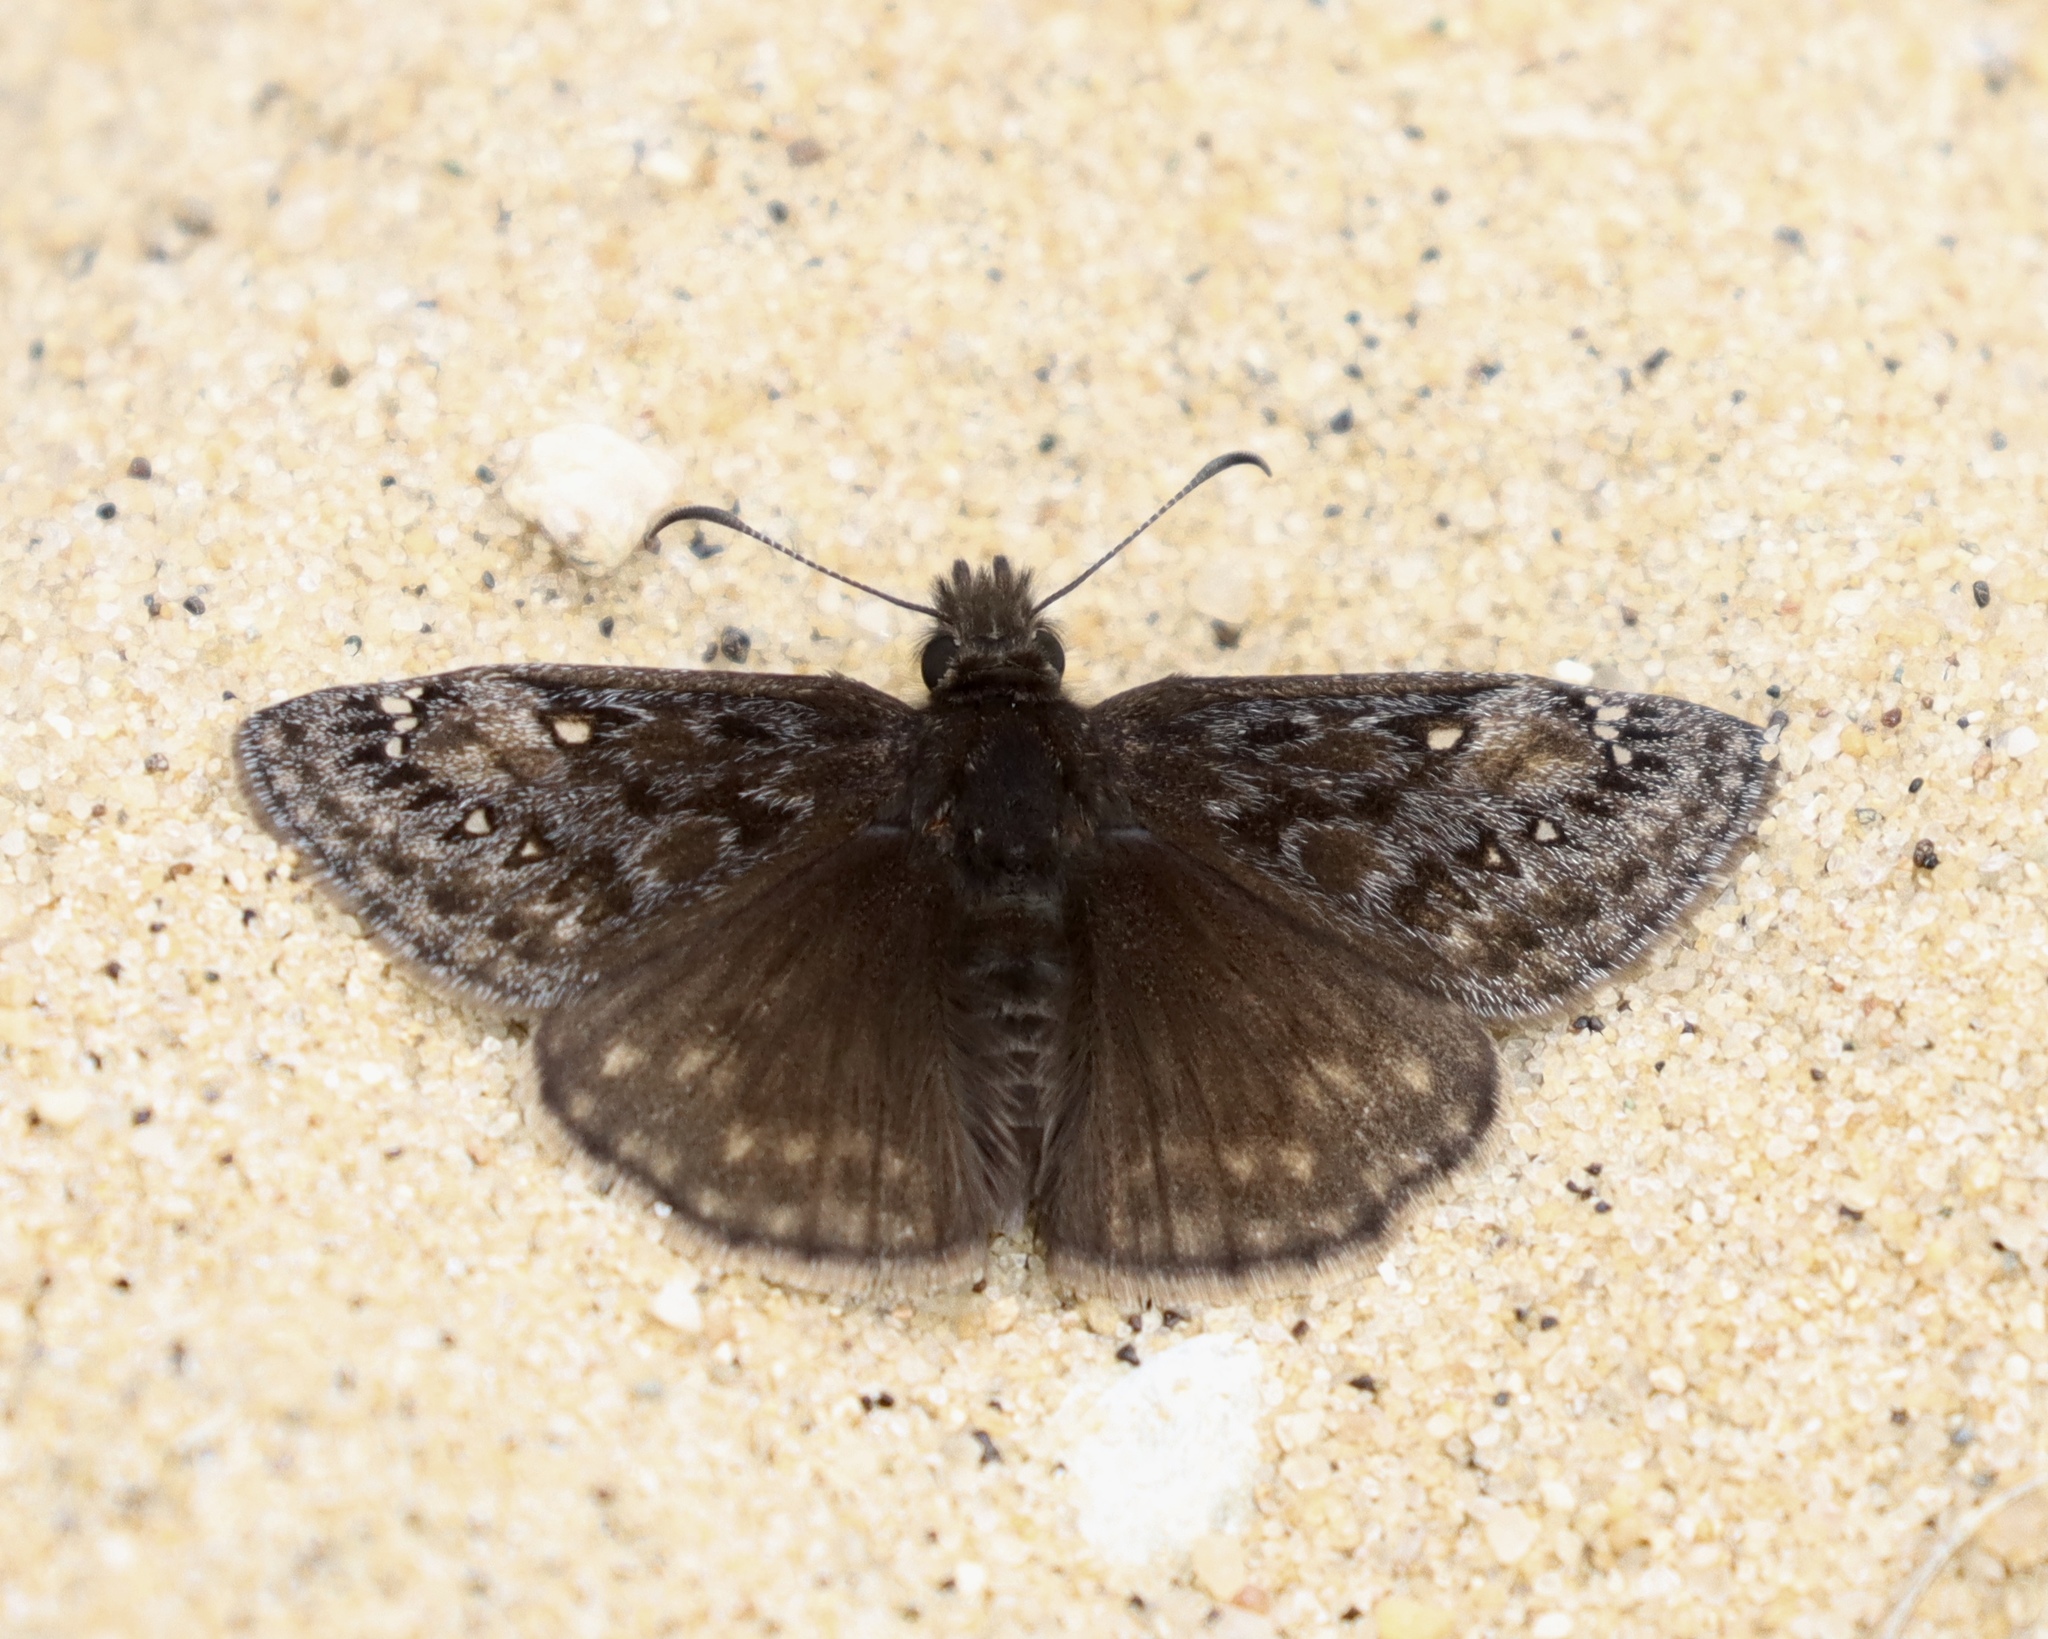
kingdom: Animalia
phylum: Arthropoda
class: Insecta
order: Lepidoptera
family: Hesperiidae
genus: Erynnis
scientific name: Erynnis juvenalis
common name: Juvenal's duskywing
